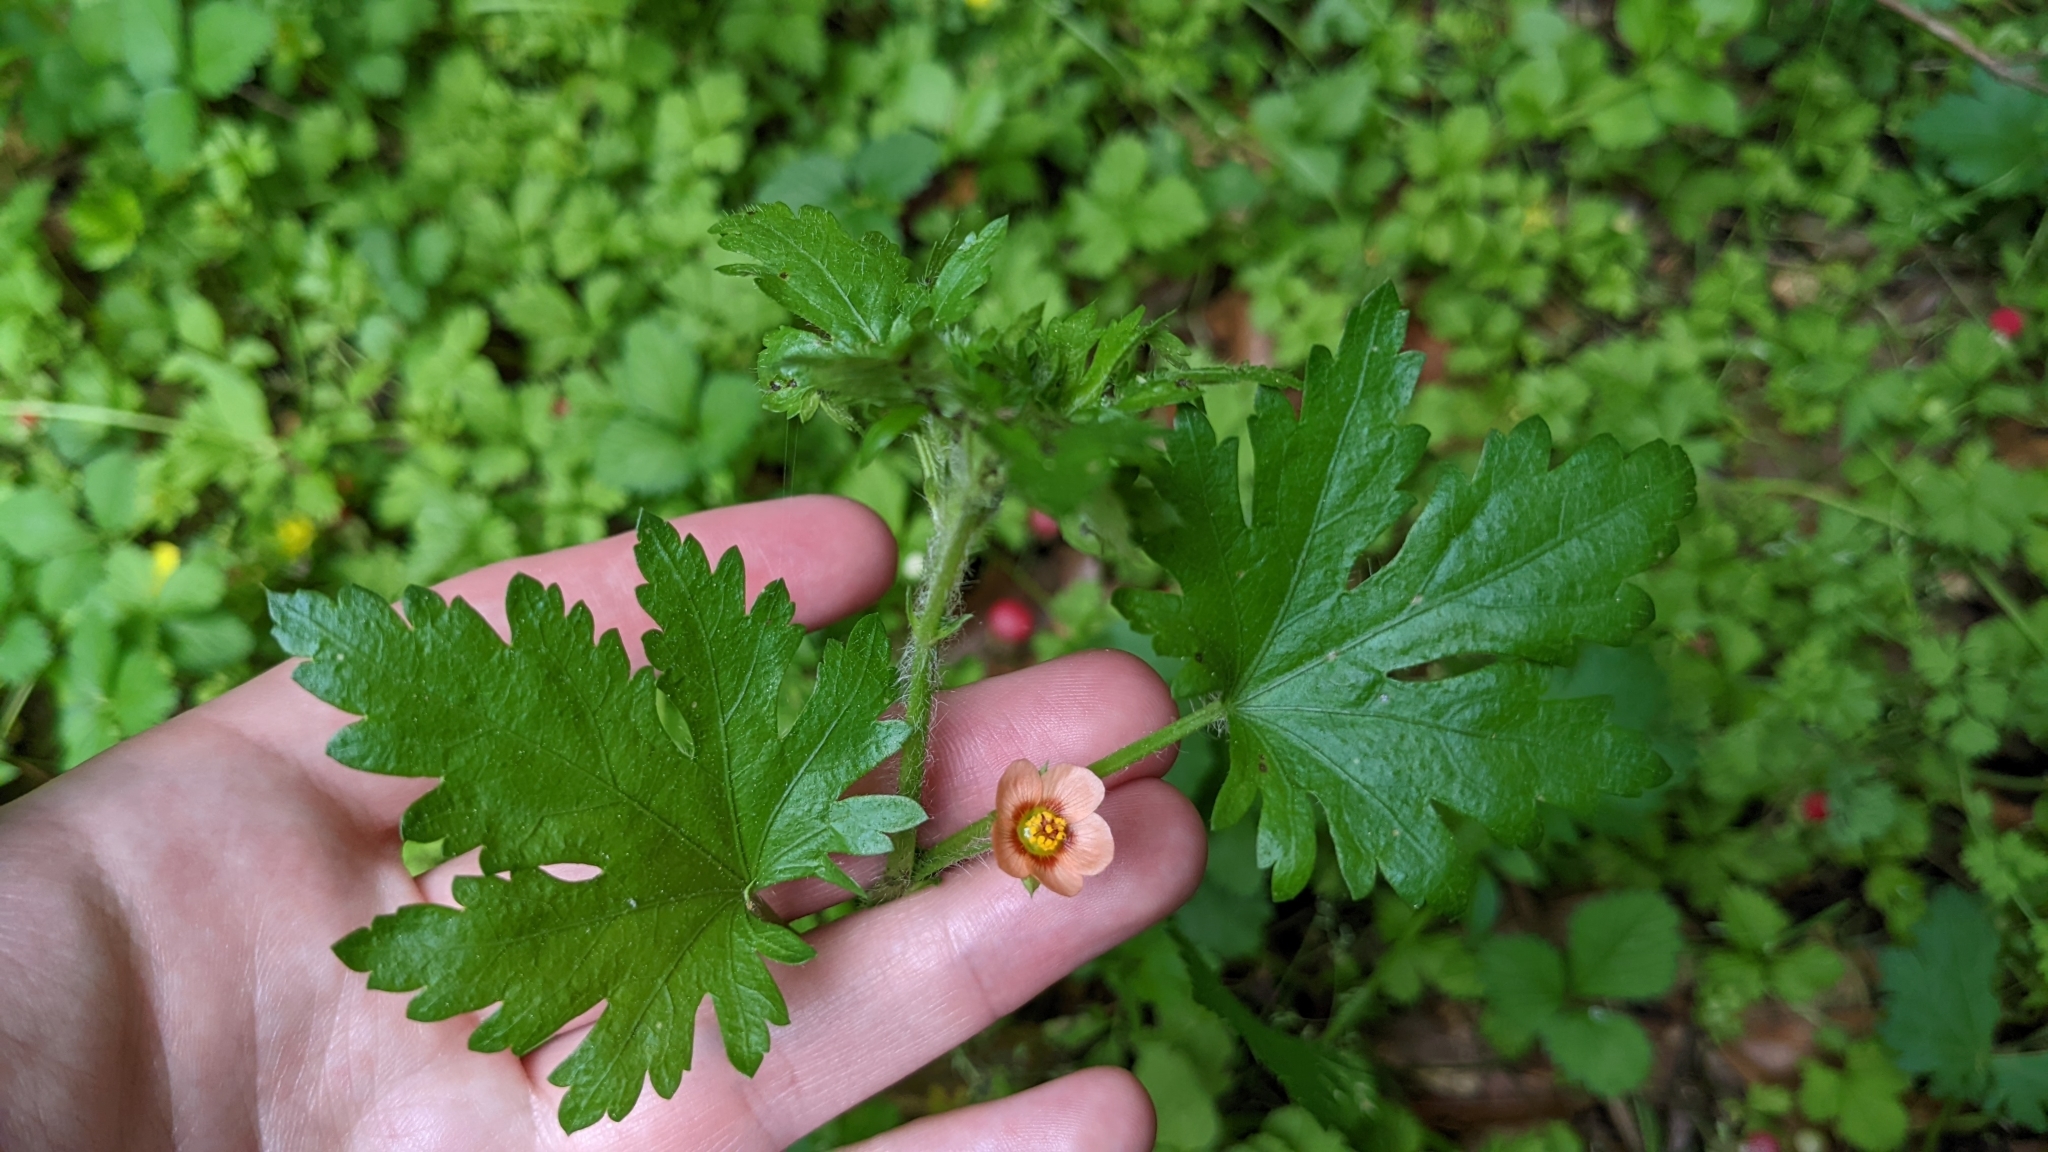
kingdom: Plantae
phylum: Tracheophyta
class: Magnoliopsida
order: Malvales
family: Malvaceae
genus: Modiola
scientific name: Modiola caroliniana
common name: Carolina bristlemallow
